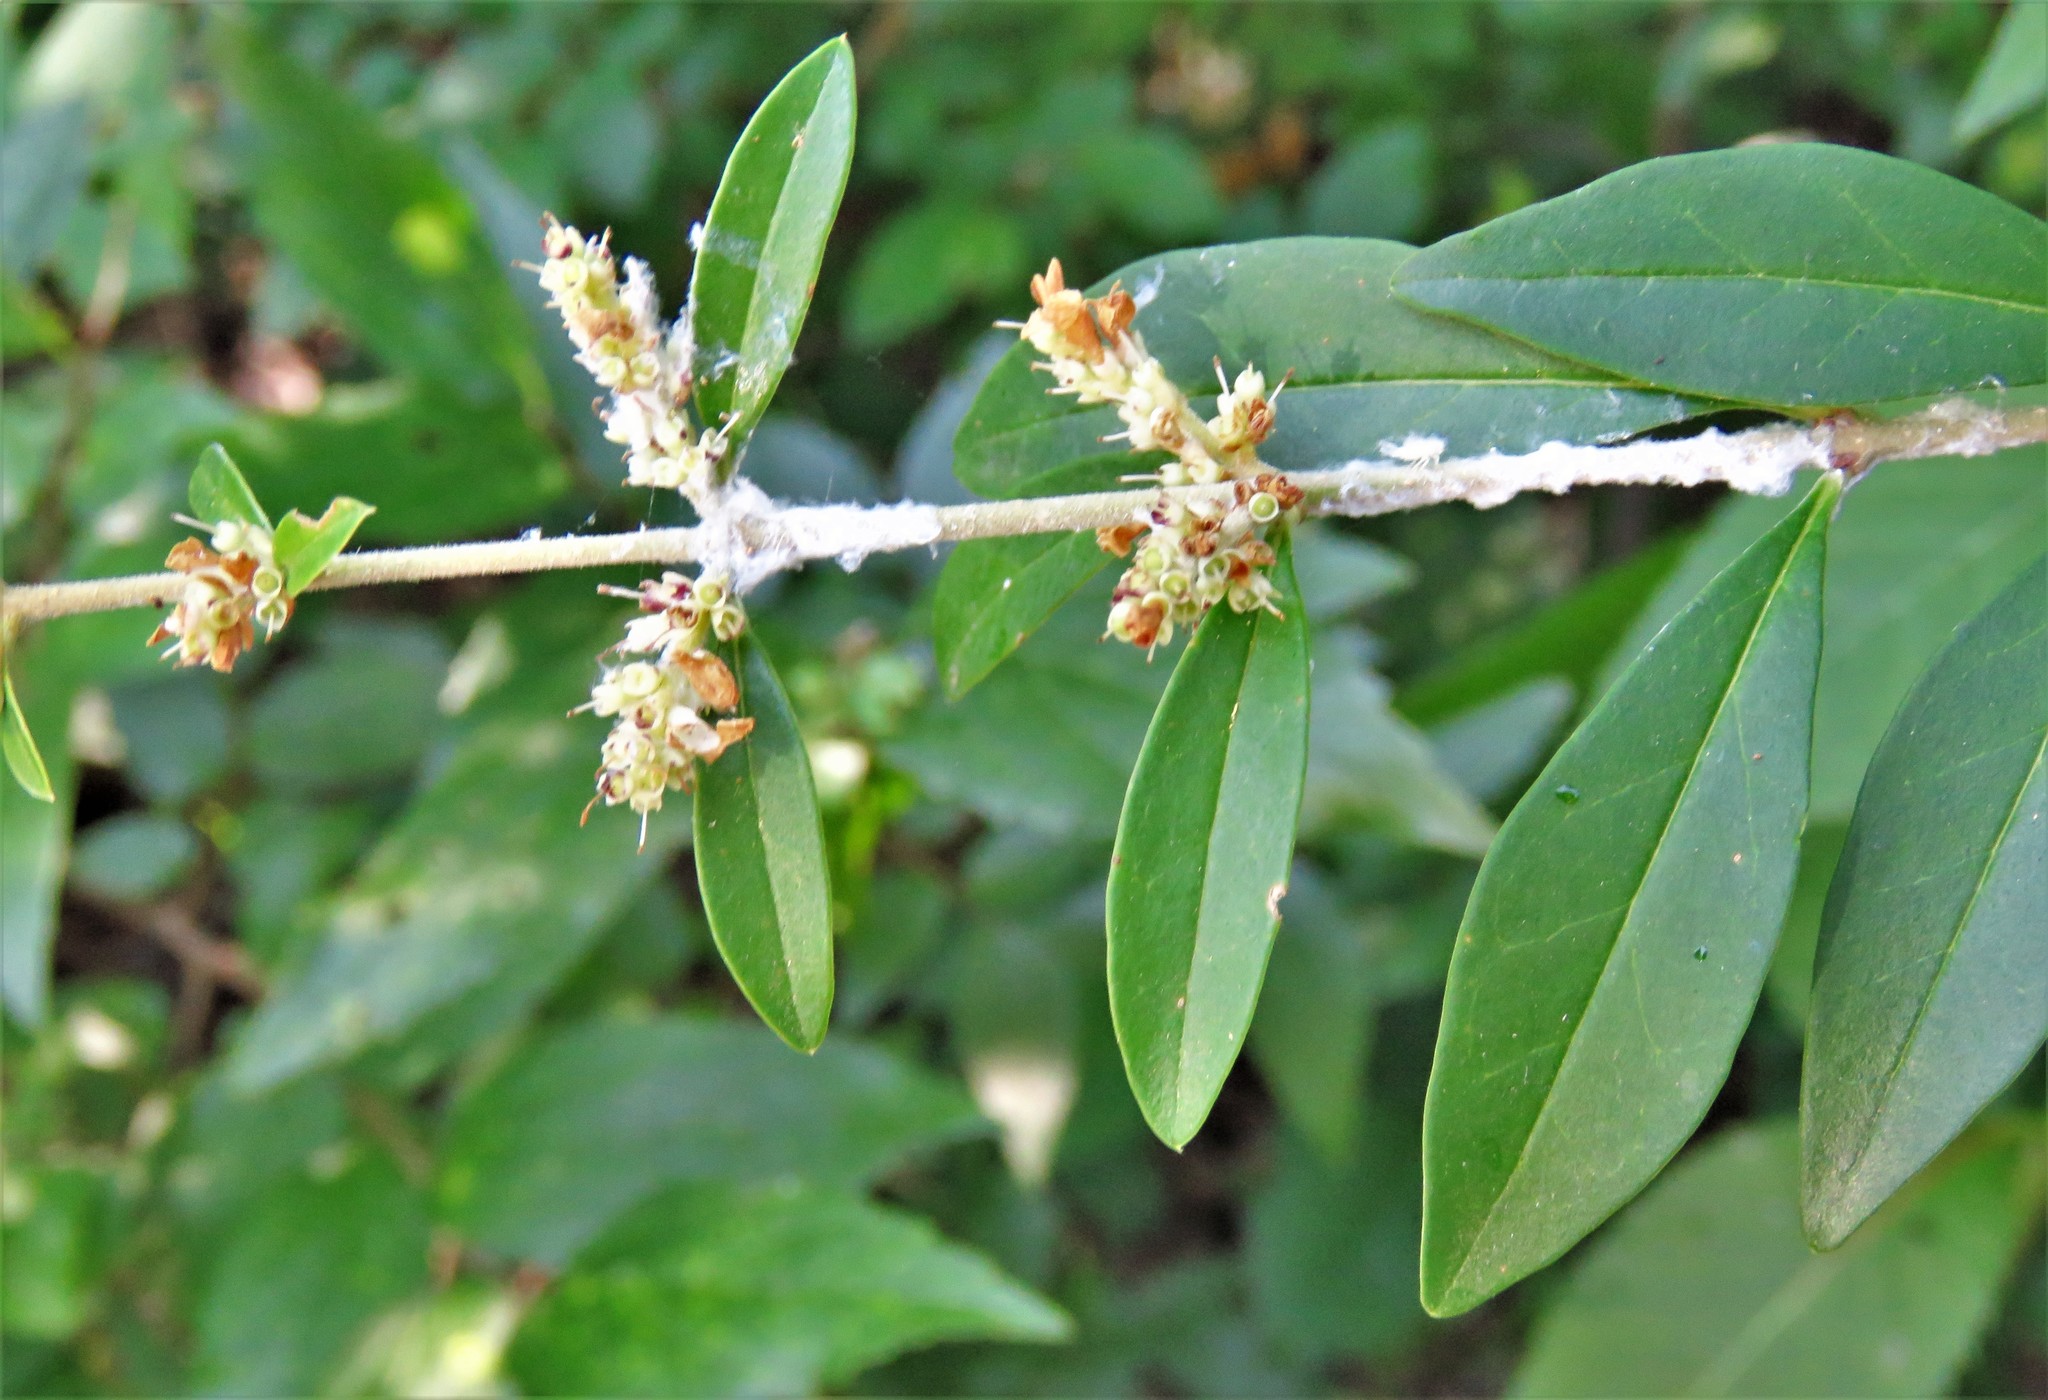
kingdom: Plantae
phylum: Tracheophyta
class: Magnoliopsida
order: Lamiales
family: Oleaceae
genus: Ligustrum
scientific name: Ligustrum quihoui
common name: Waxyleaf privet
